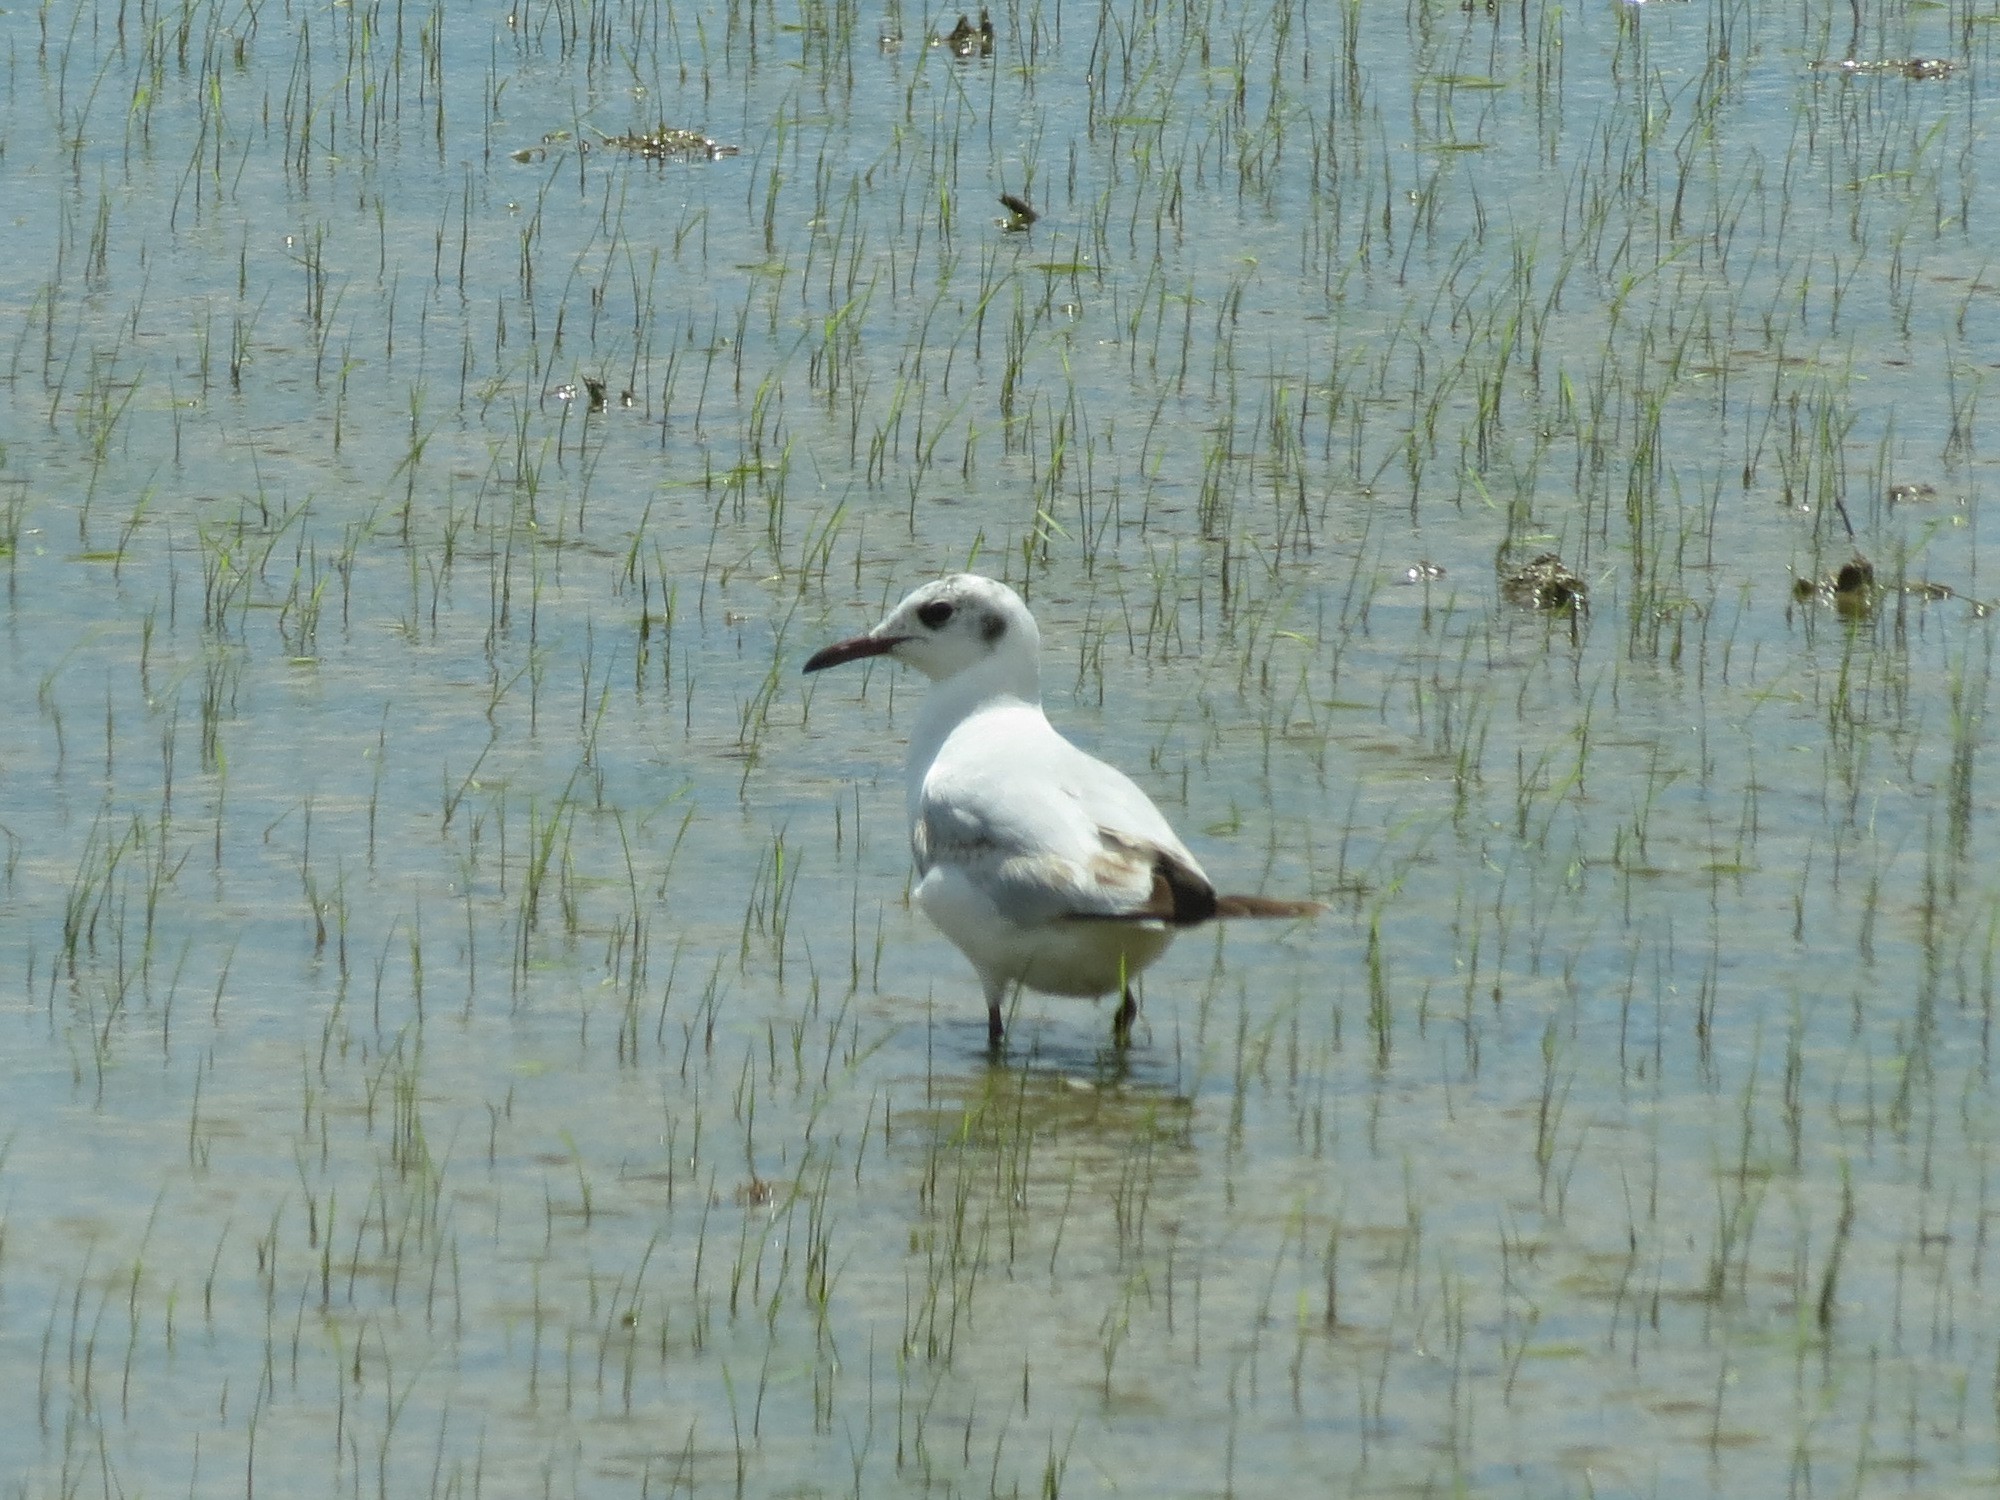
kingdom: Animalia
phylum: Chordata
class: Aves
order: Charadriiformes
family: Laridae
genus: Chroicocephalus
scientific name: Chroicocephalus ridibundus
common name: Black-headed gull
